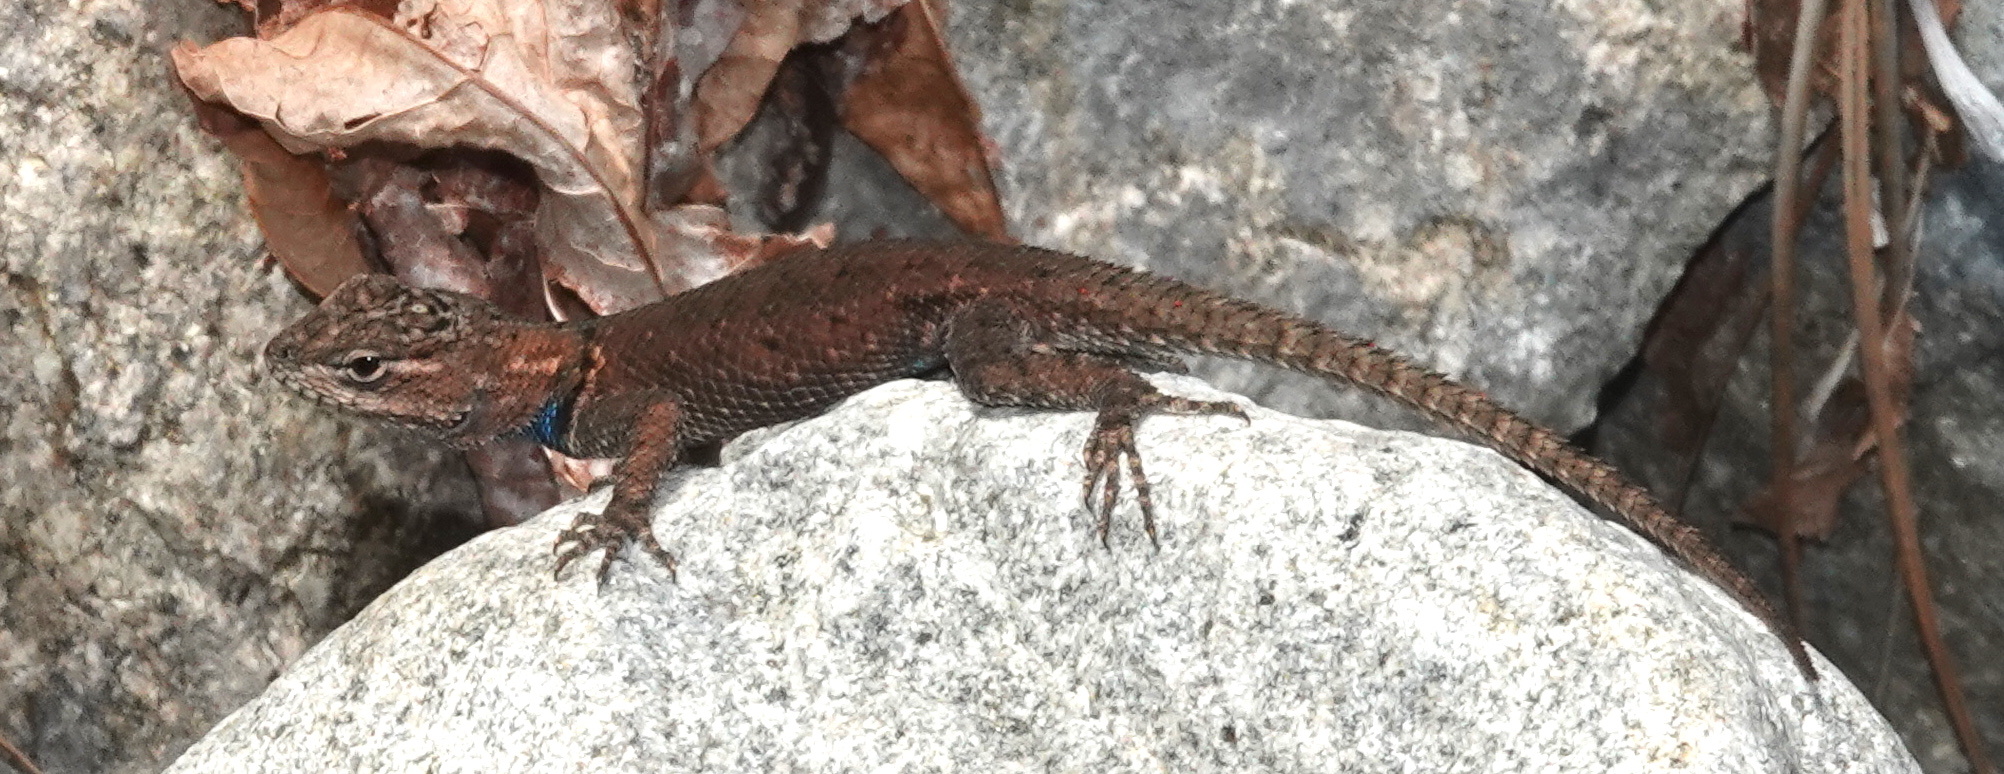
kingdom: Animalia
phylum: Chordata
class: Squamata
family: Phrynosomatidae
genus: Sceloporus
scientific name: Sceloporus jarrovii
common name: Yarrow's spiny lizard
